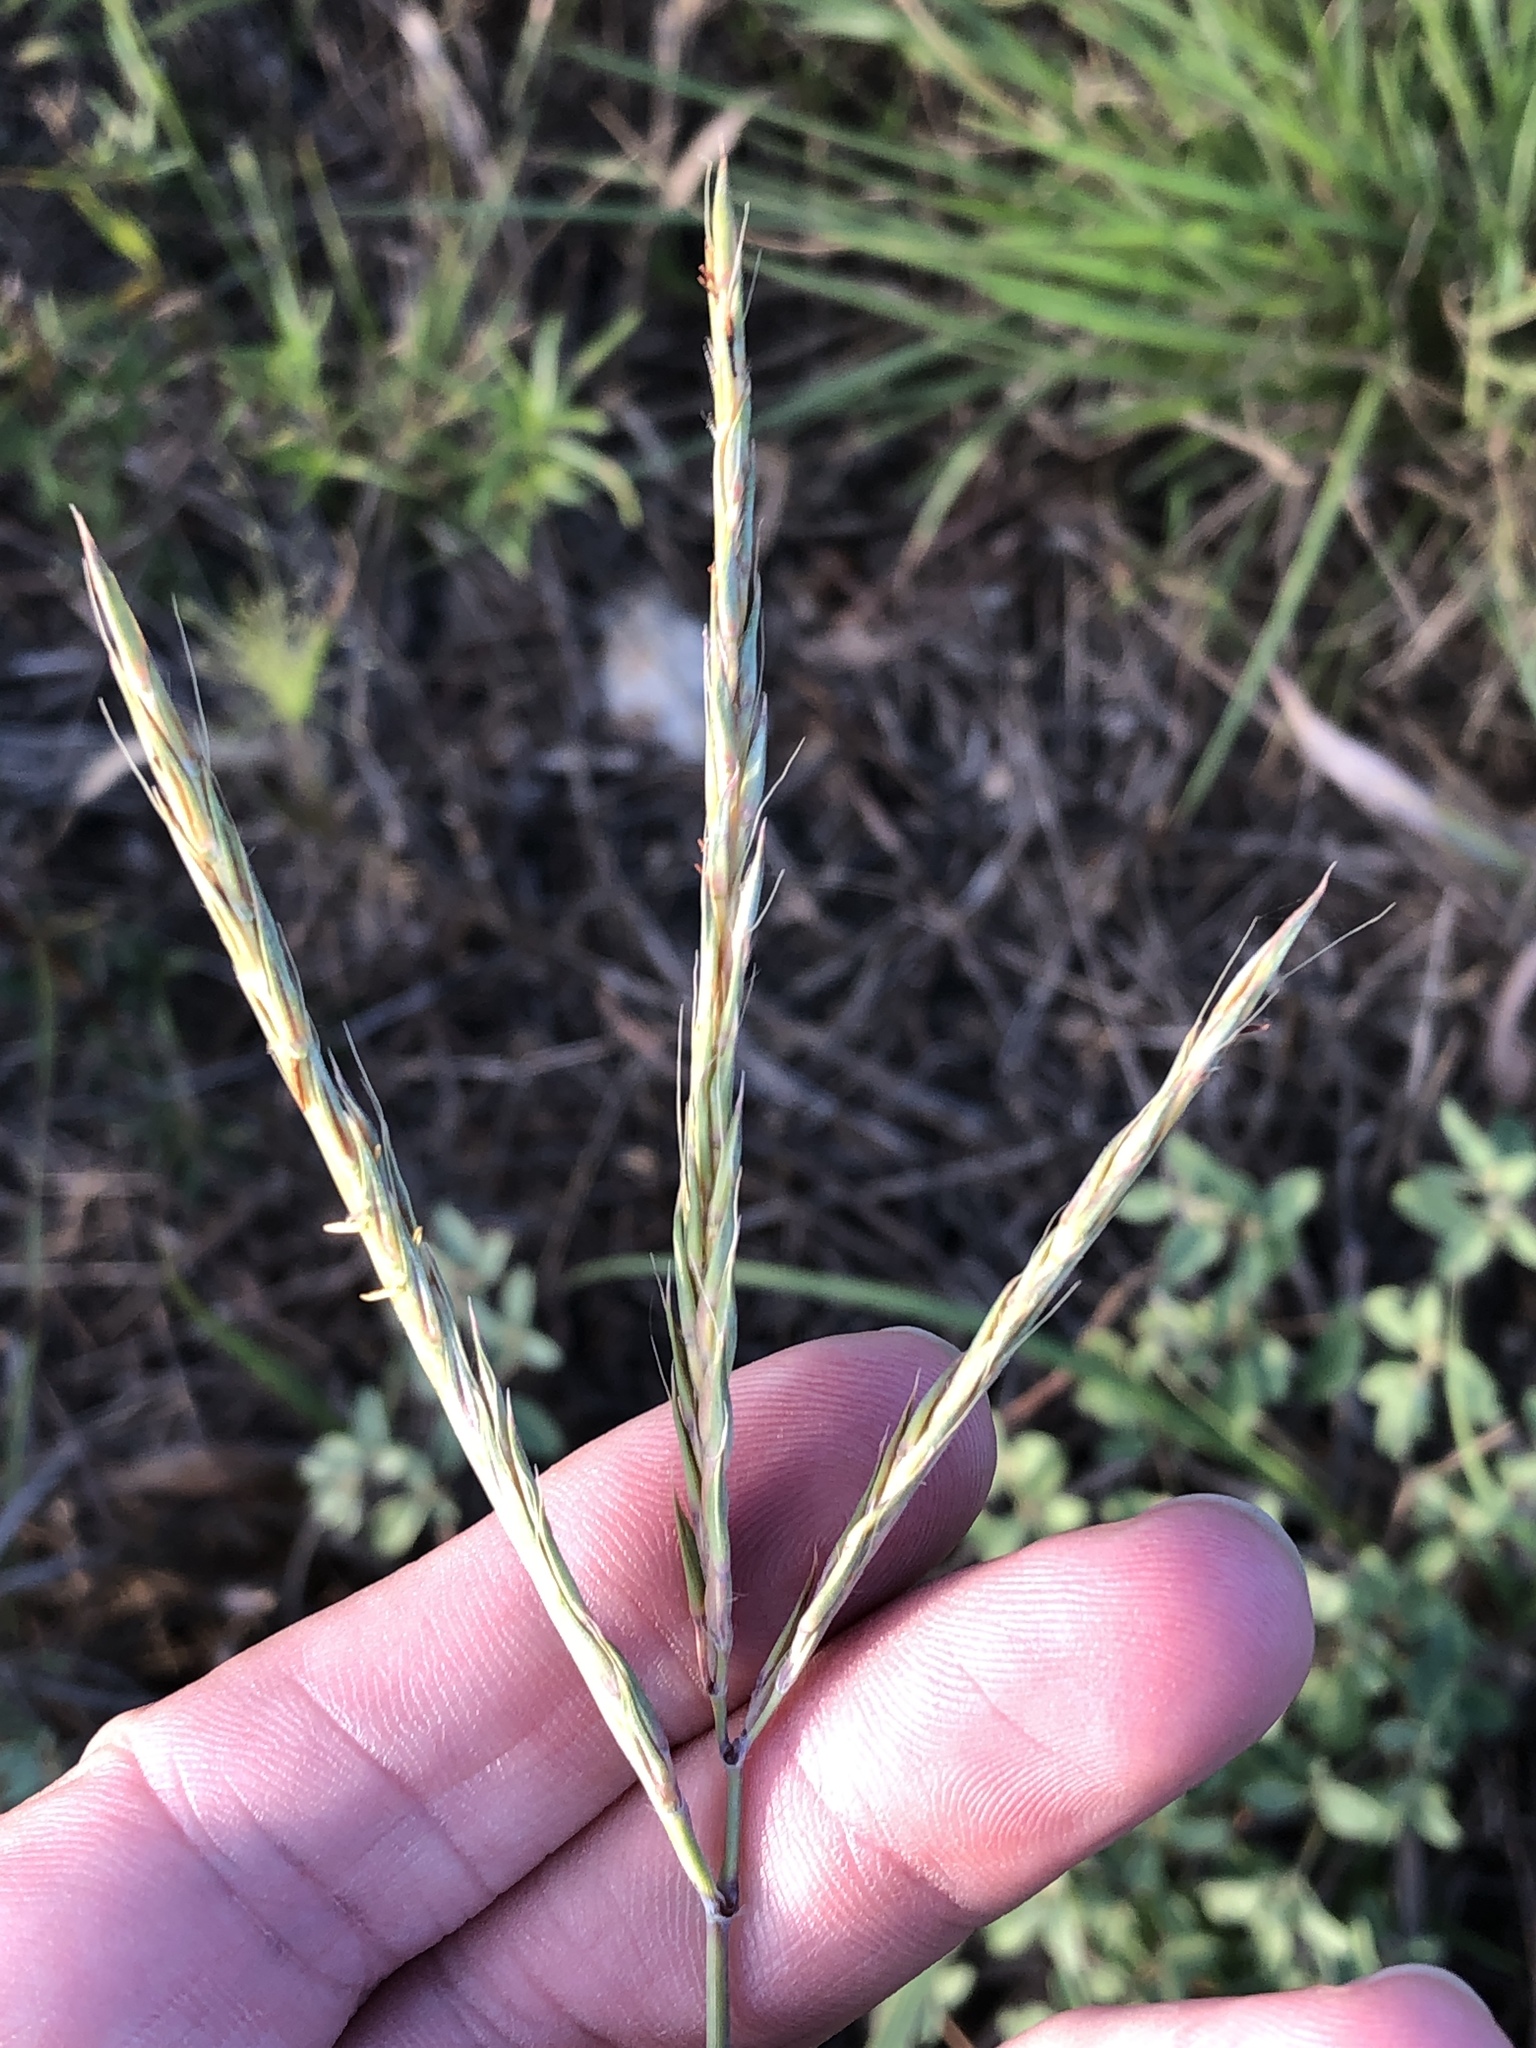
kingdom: Plantae
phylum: Tracheophyta
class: Liliopsida
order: Poales
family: Poaceae
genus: Andropogon
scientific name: Andropogon gerardi
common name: Big bluestem
